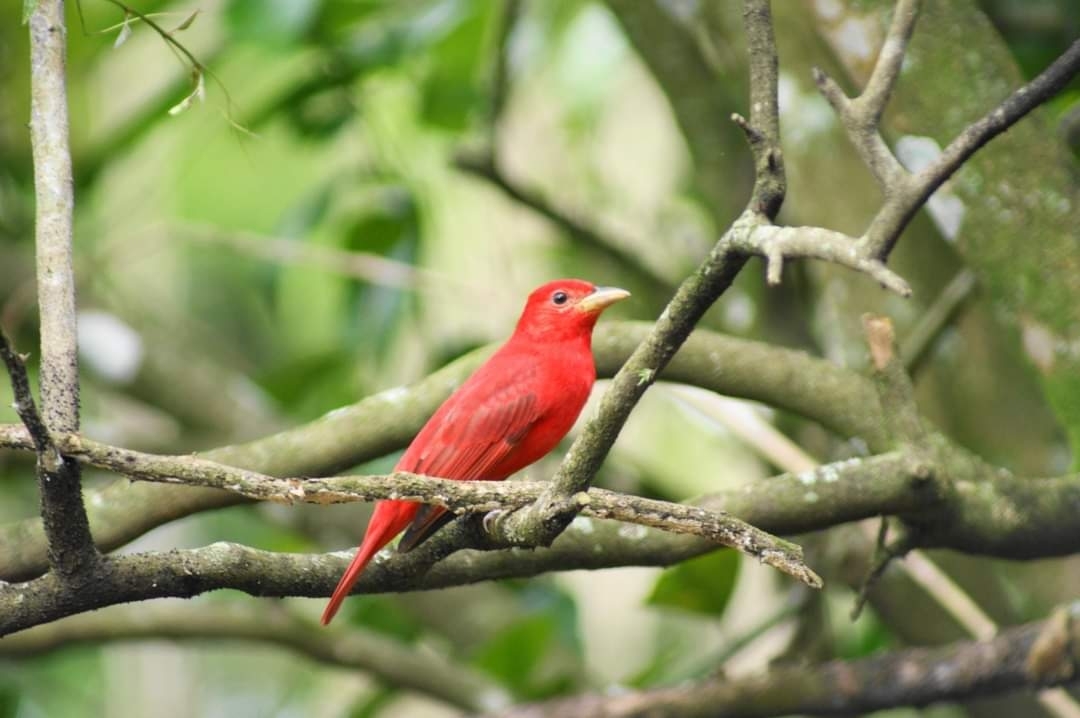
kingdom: Animalia
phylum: Chordata
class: Aves
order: Passeriformes
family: Cardinalidae
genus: Piranga
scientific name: Piranga rubra
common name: Summer tanager
